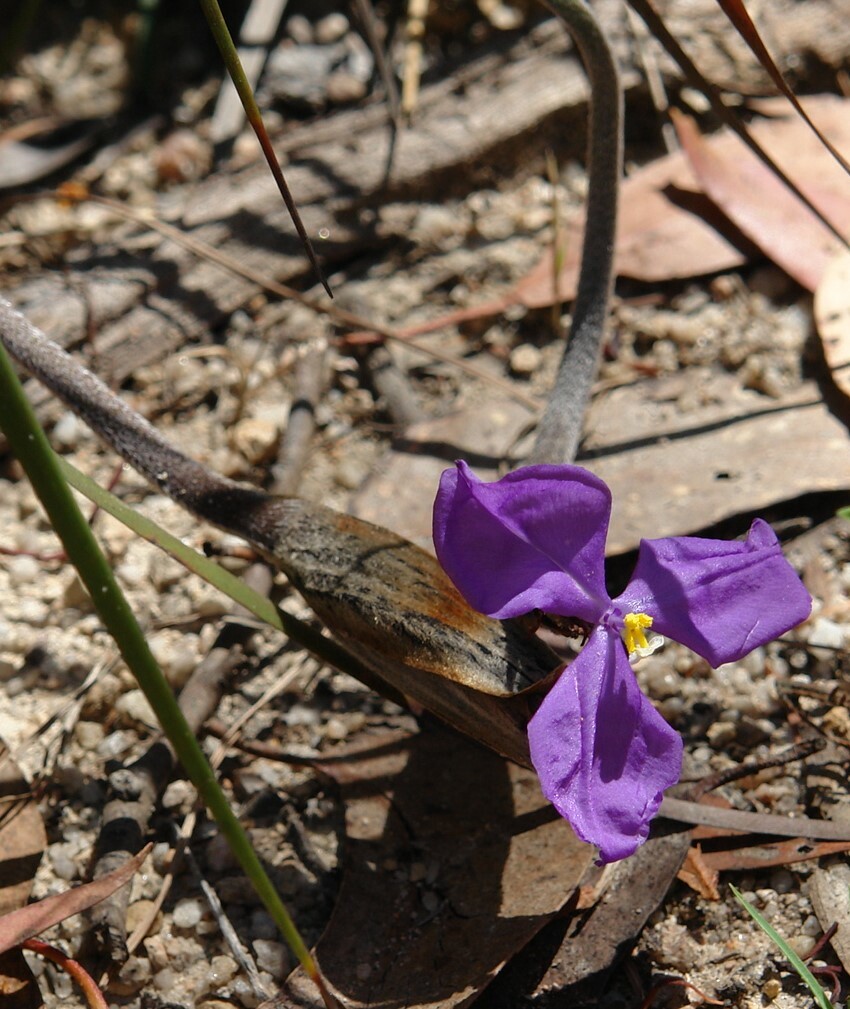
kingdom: Plantae
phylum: Tracheophyta
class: Liliopsida
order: Asparagales
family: Iridaceae
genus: Patersonia
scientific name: Patersonia sericea
